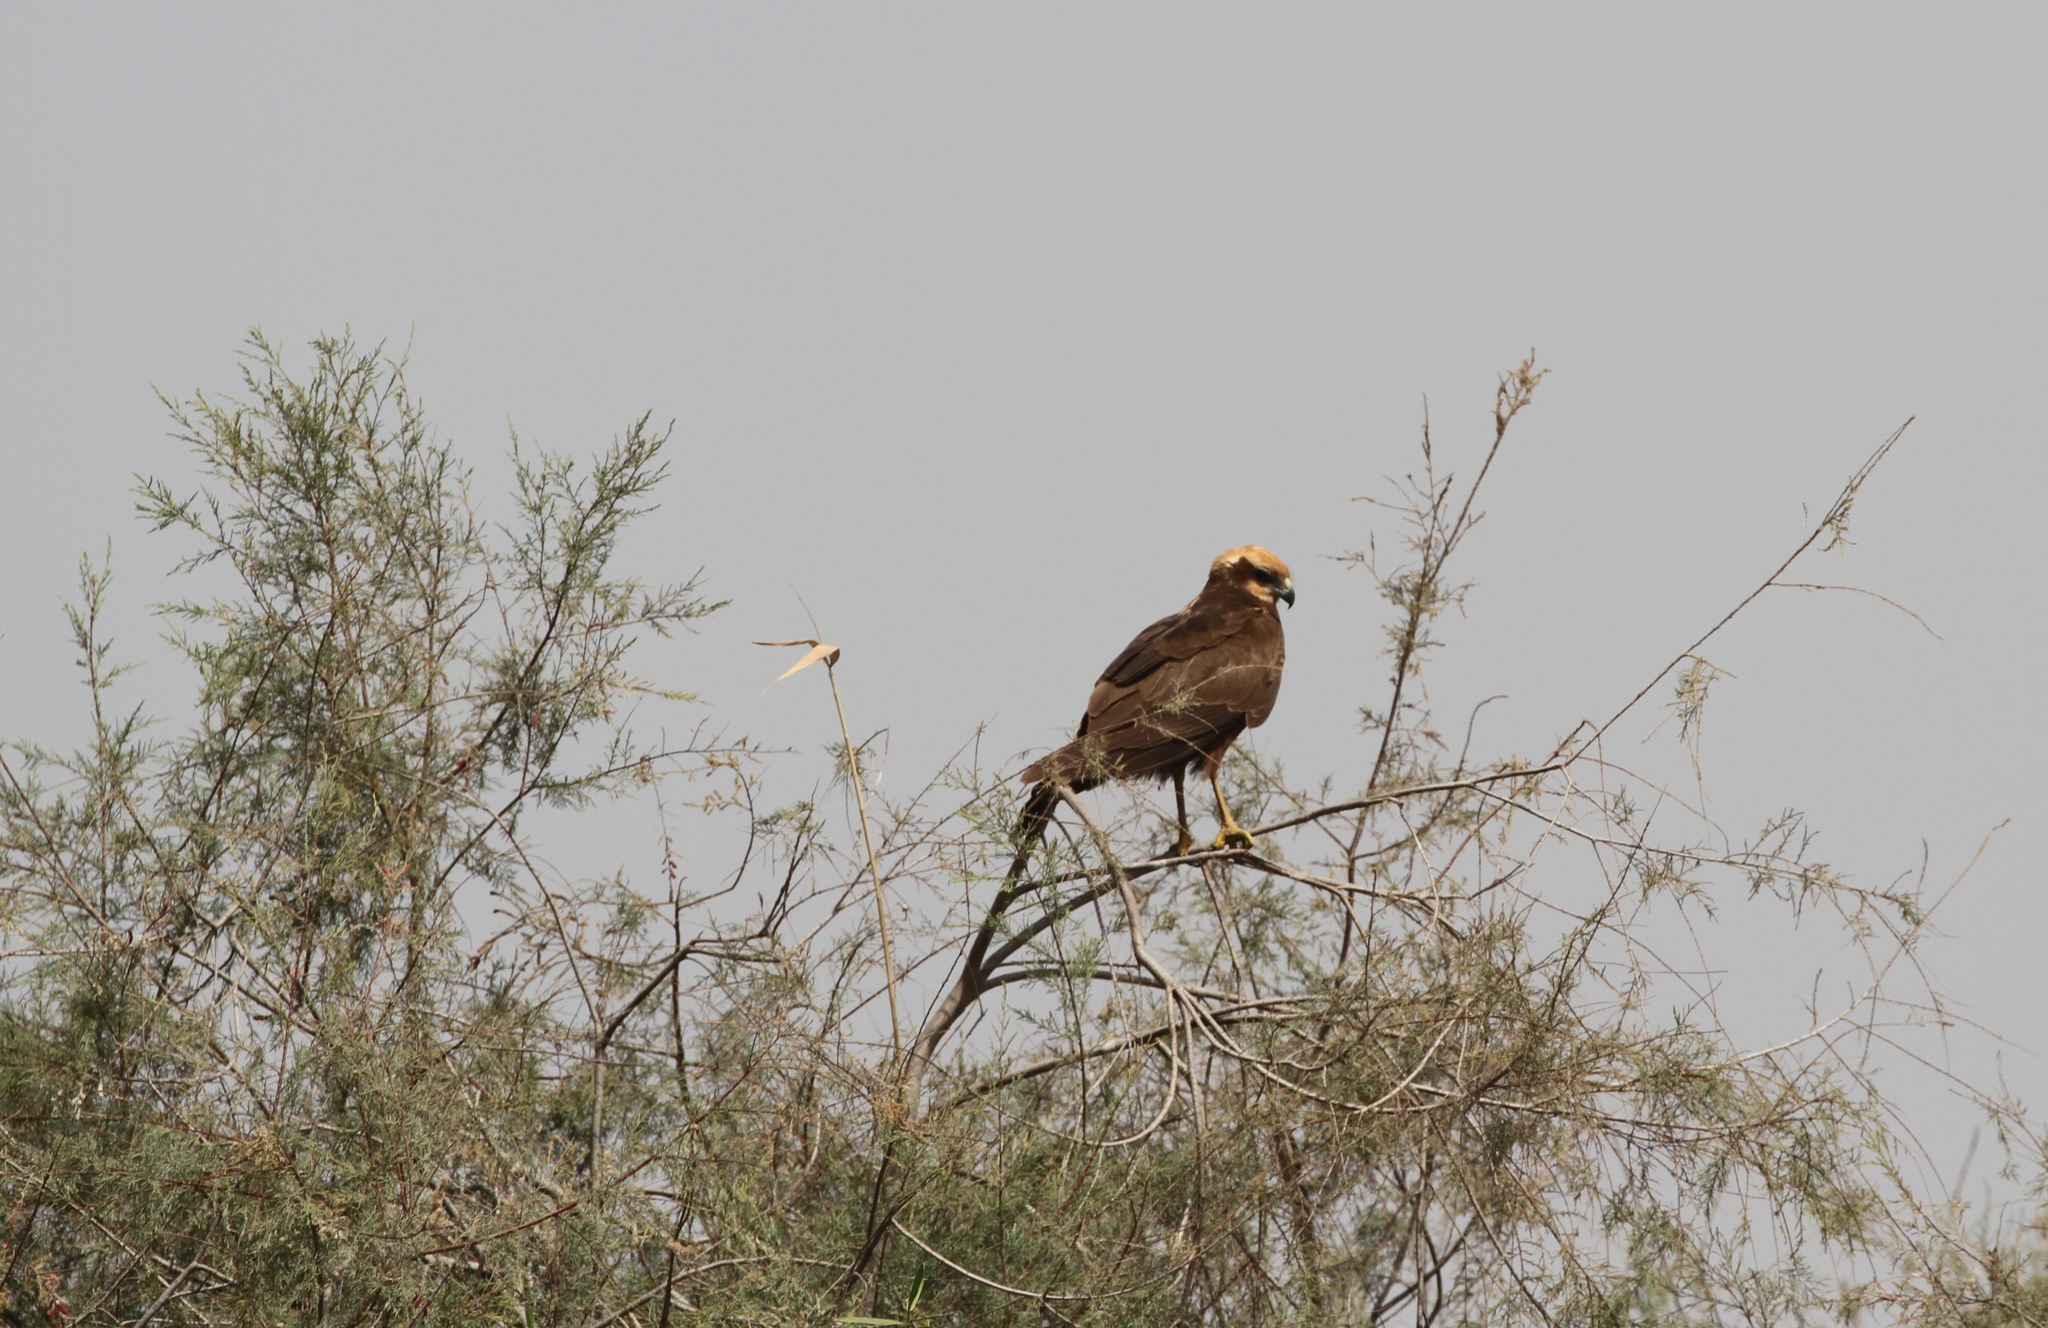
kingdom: Animalia
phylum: Chordata
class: Aves
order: Accipitriformes
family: Accipitridae
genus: Circus
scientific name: Circus aeruginosus
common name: Western marsh harrier
